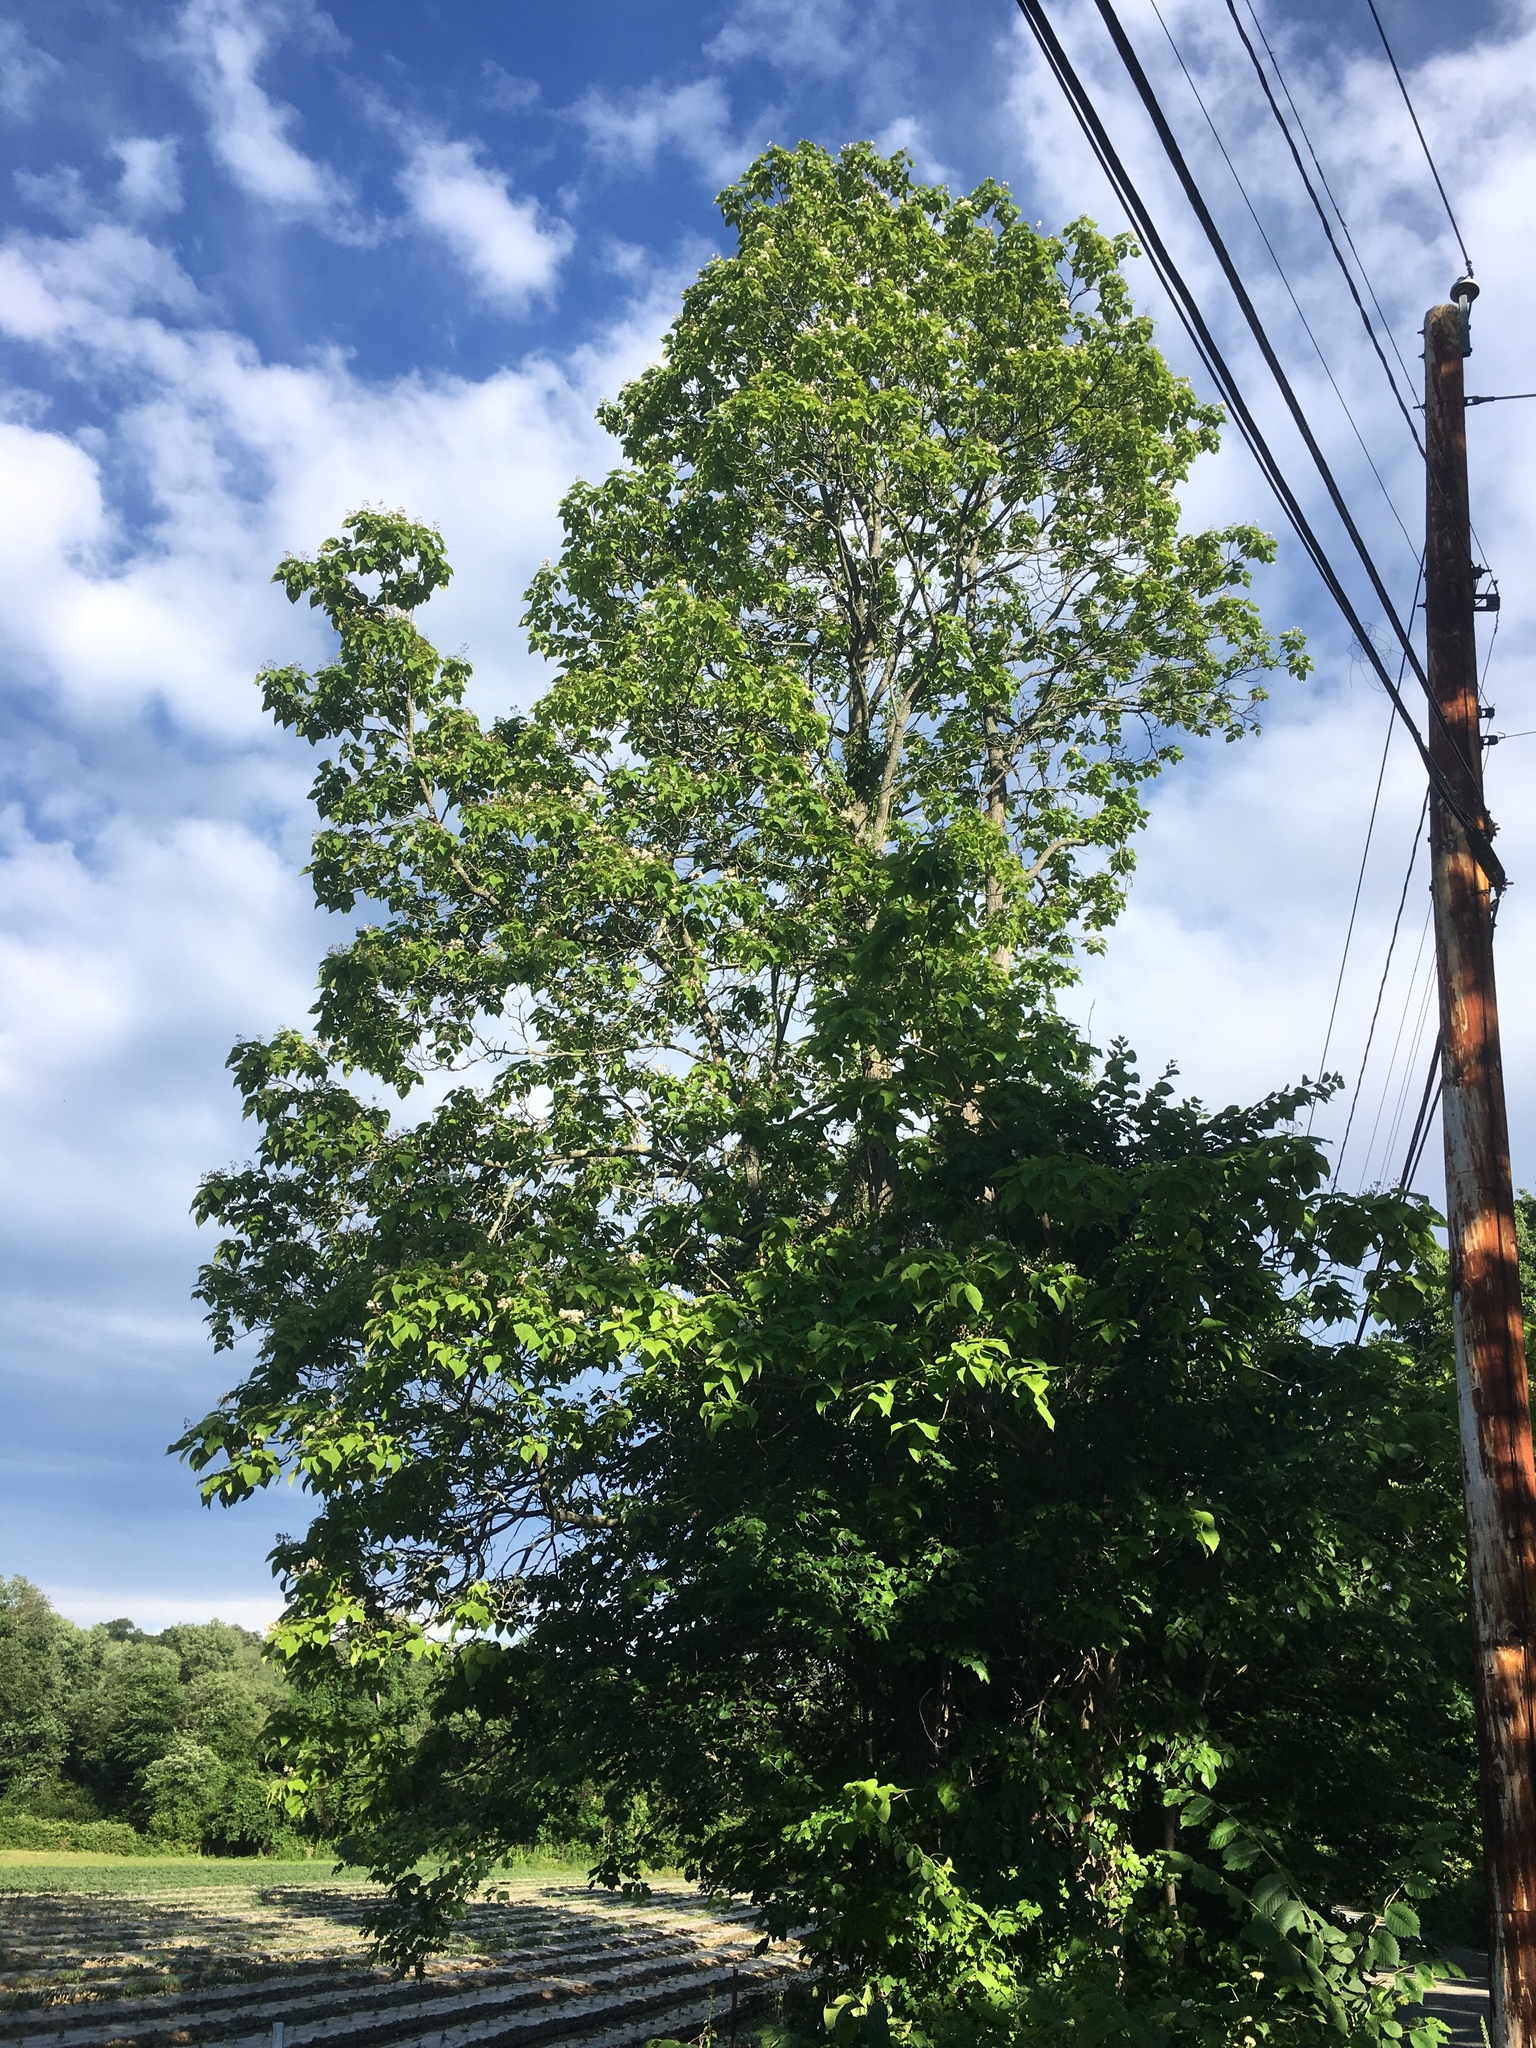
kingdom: Plantae
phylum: Tracheophyta
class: Magnoliopsida
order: Lamiales
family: Bignoniaceae
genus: Catalpa
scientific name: Catalpa speciosa
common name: Northern catalpa
